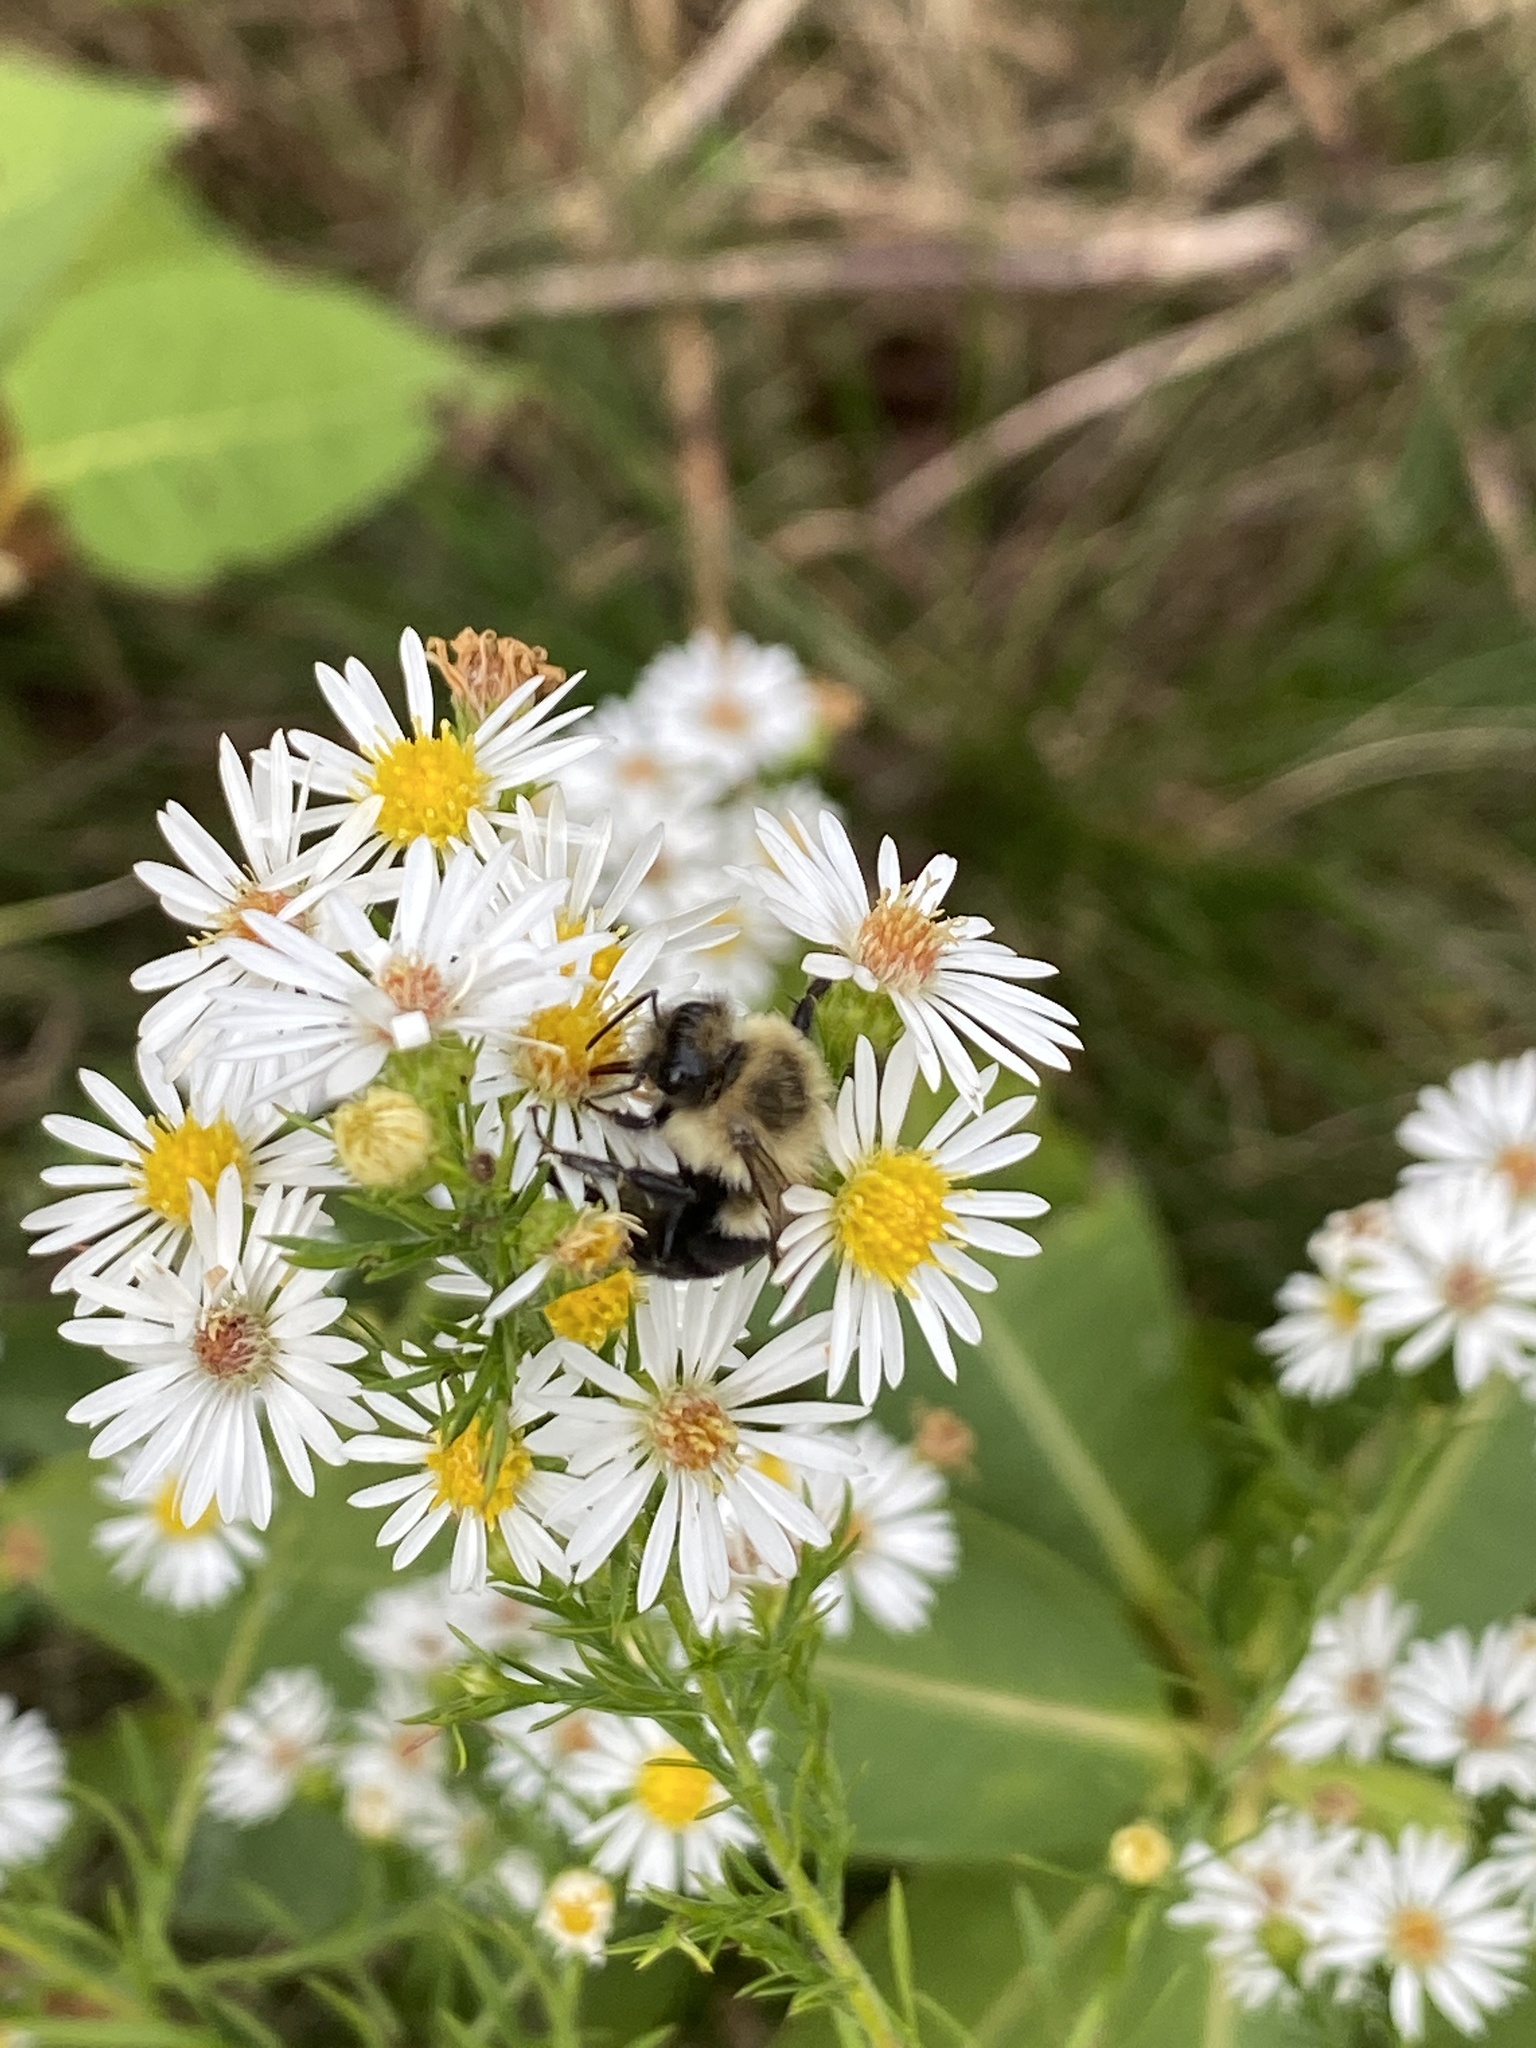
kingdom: Animalia
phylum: Arthropoda
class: Insecta
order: Hymenoptera
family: Apidae
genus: Bombus
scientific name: Bombus impatiens
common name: Common eastern bumble bee
